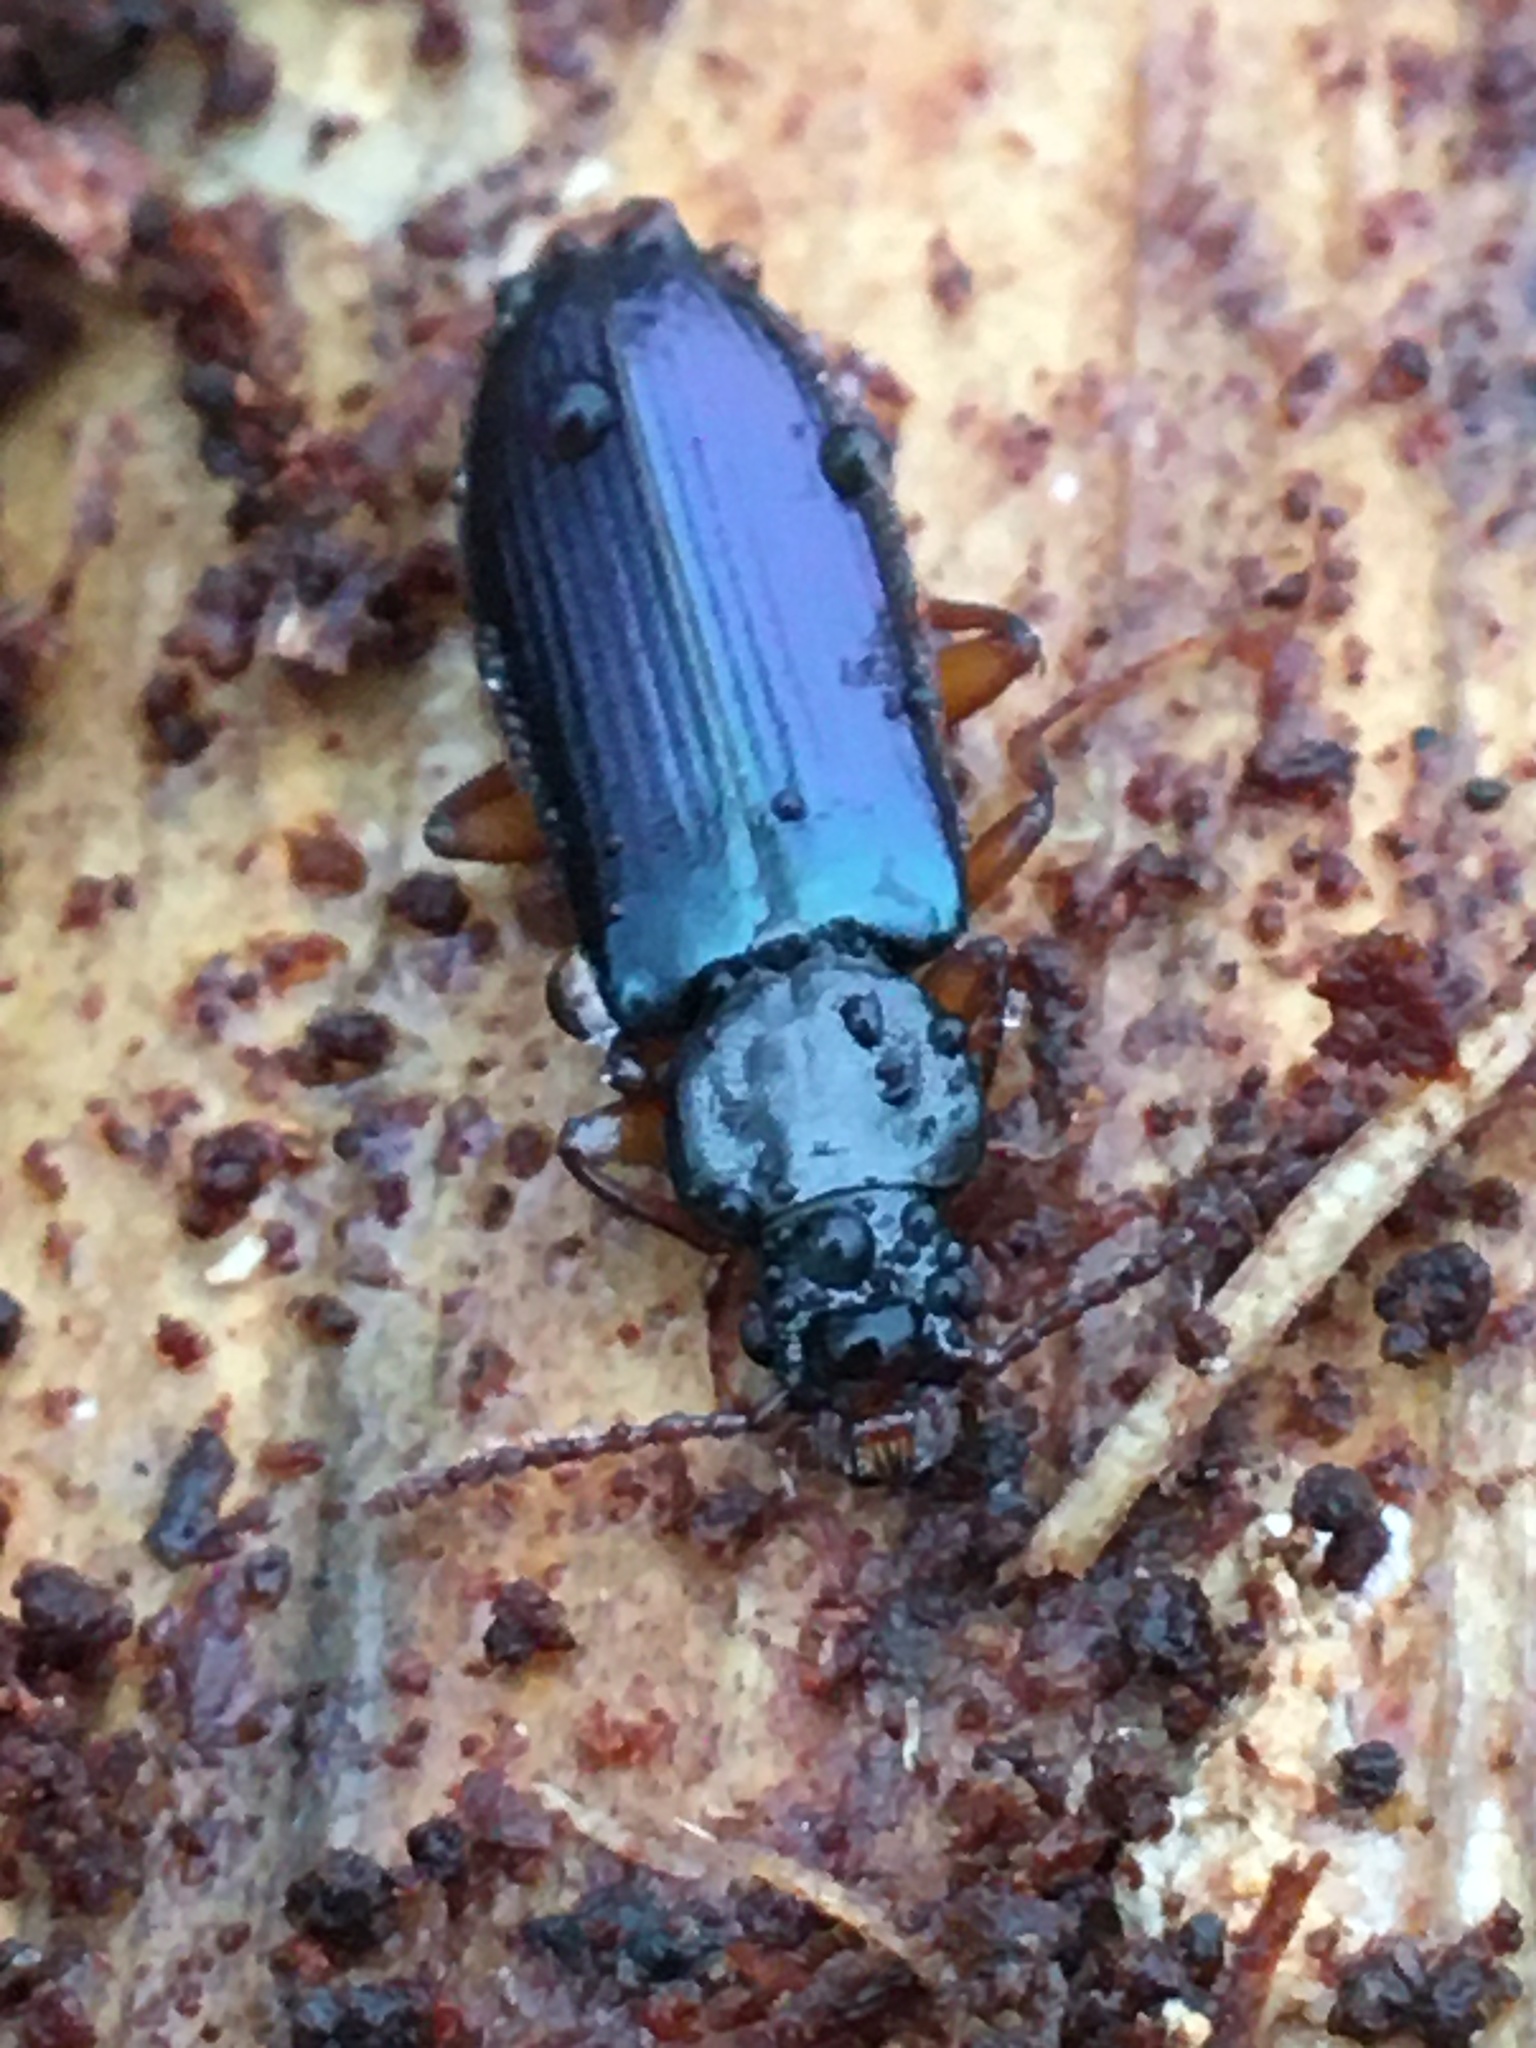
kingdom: Animalia
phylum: Arthropoda
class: Insecta
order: Coleoptera
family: Pythidae
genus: Pytho
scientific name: Pytho americanus
